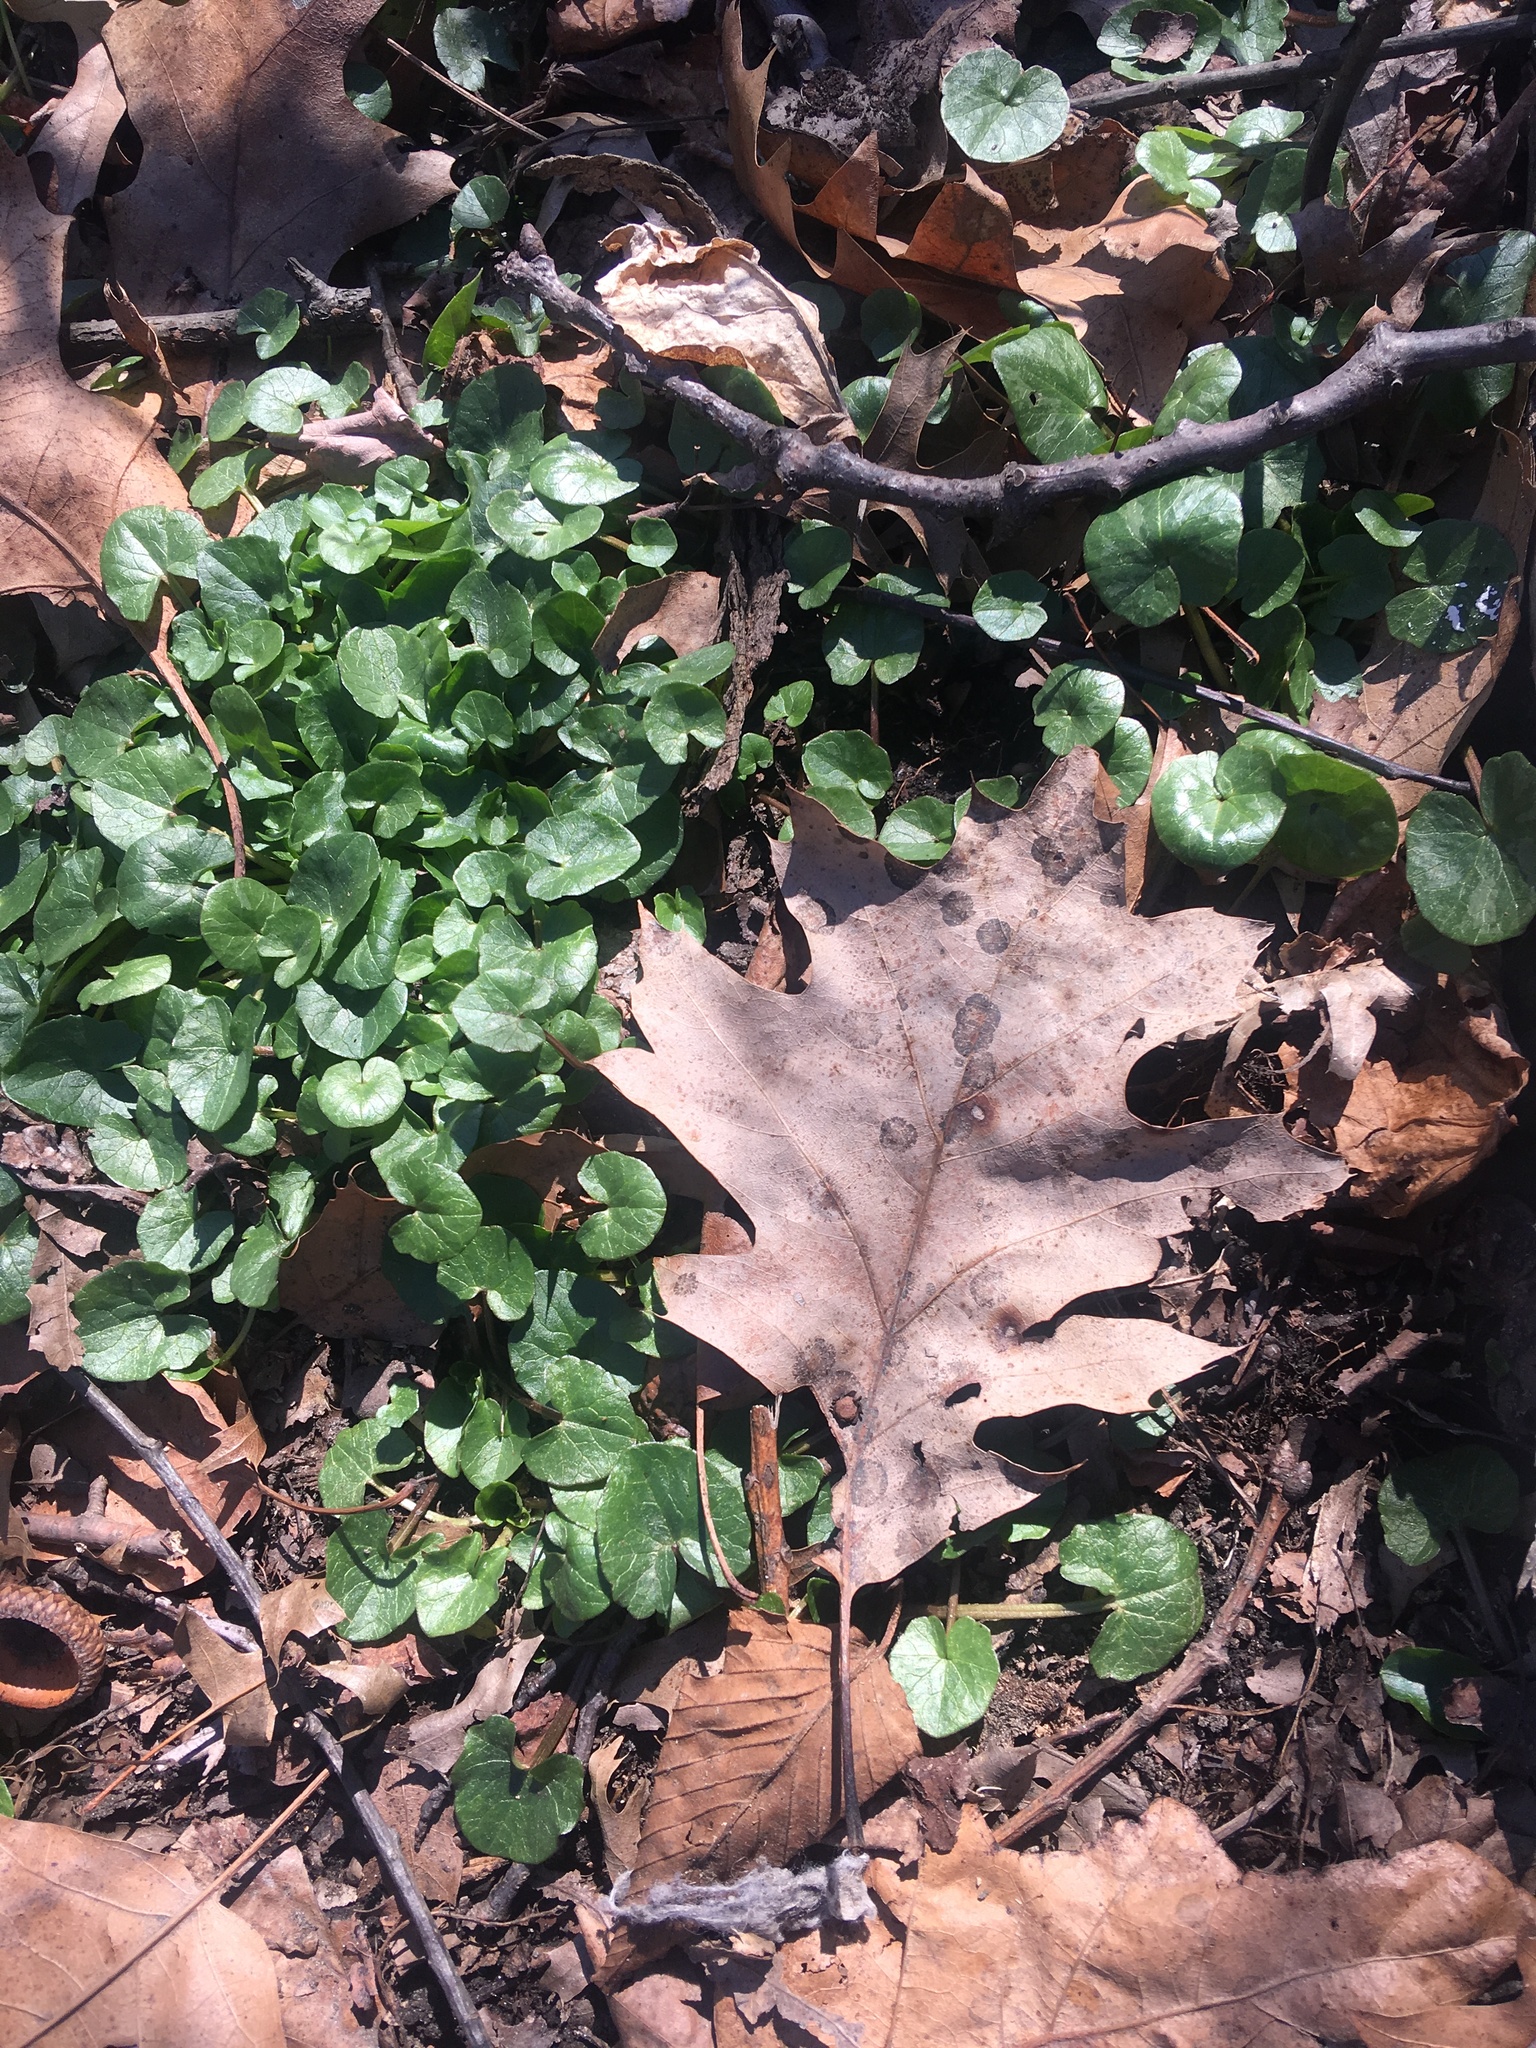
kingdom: Plantae
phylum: Tracheophyta
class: Magnoliopsida
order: Ranunculales
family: Ranunculaceae
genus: Ficaria
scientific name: Ficaria verna
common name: Lesser celandine
